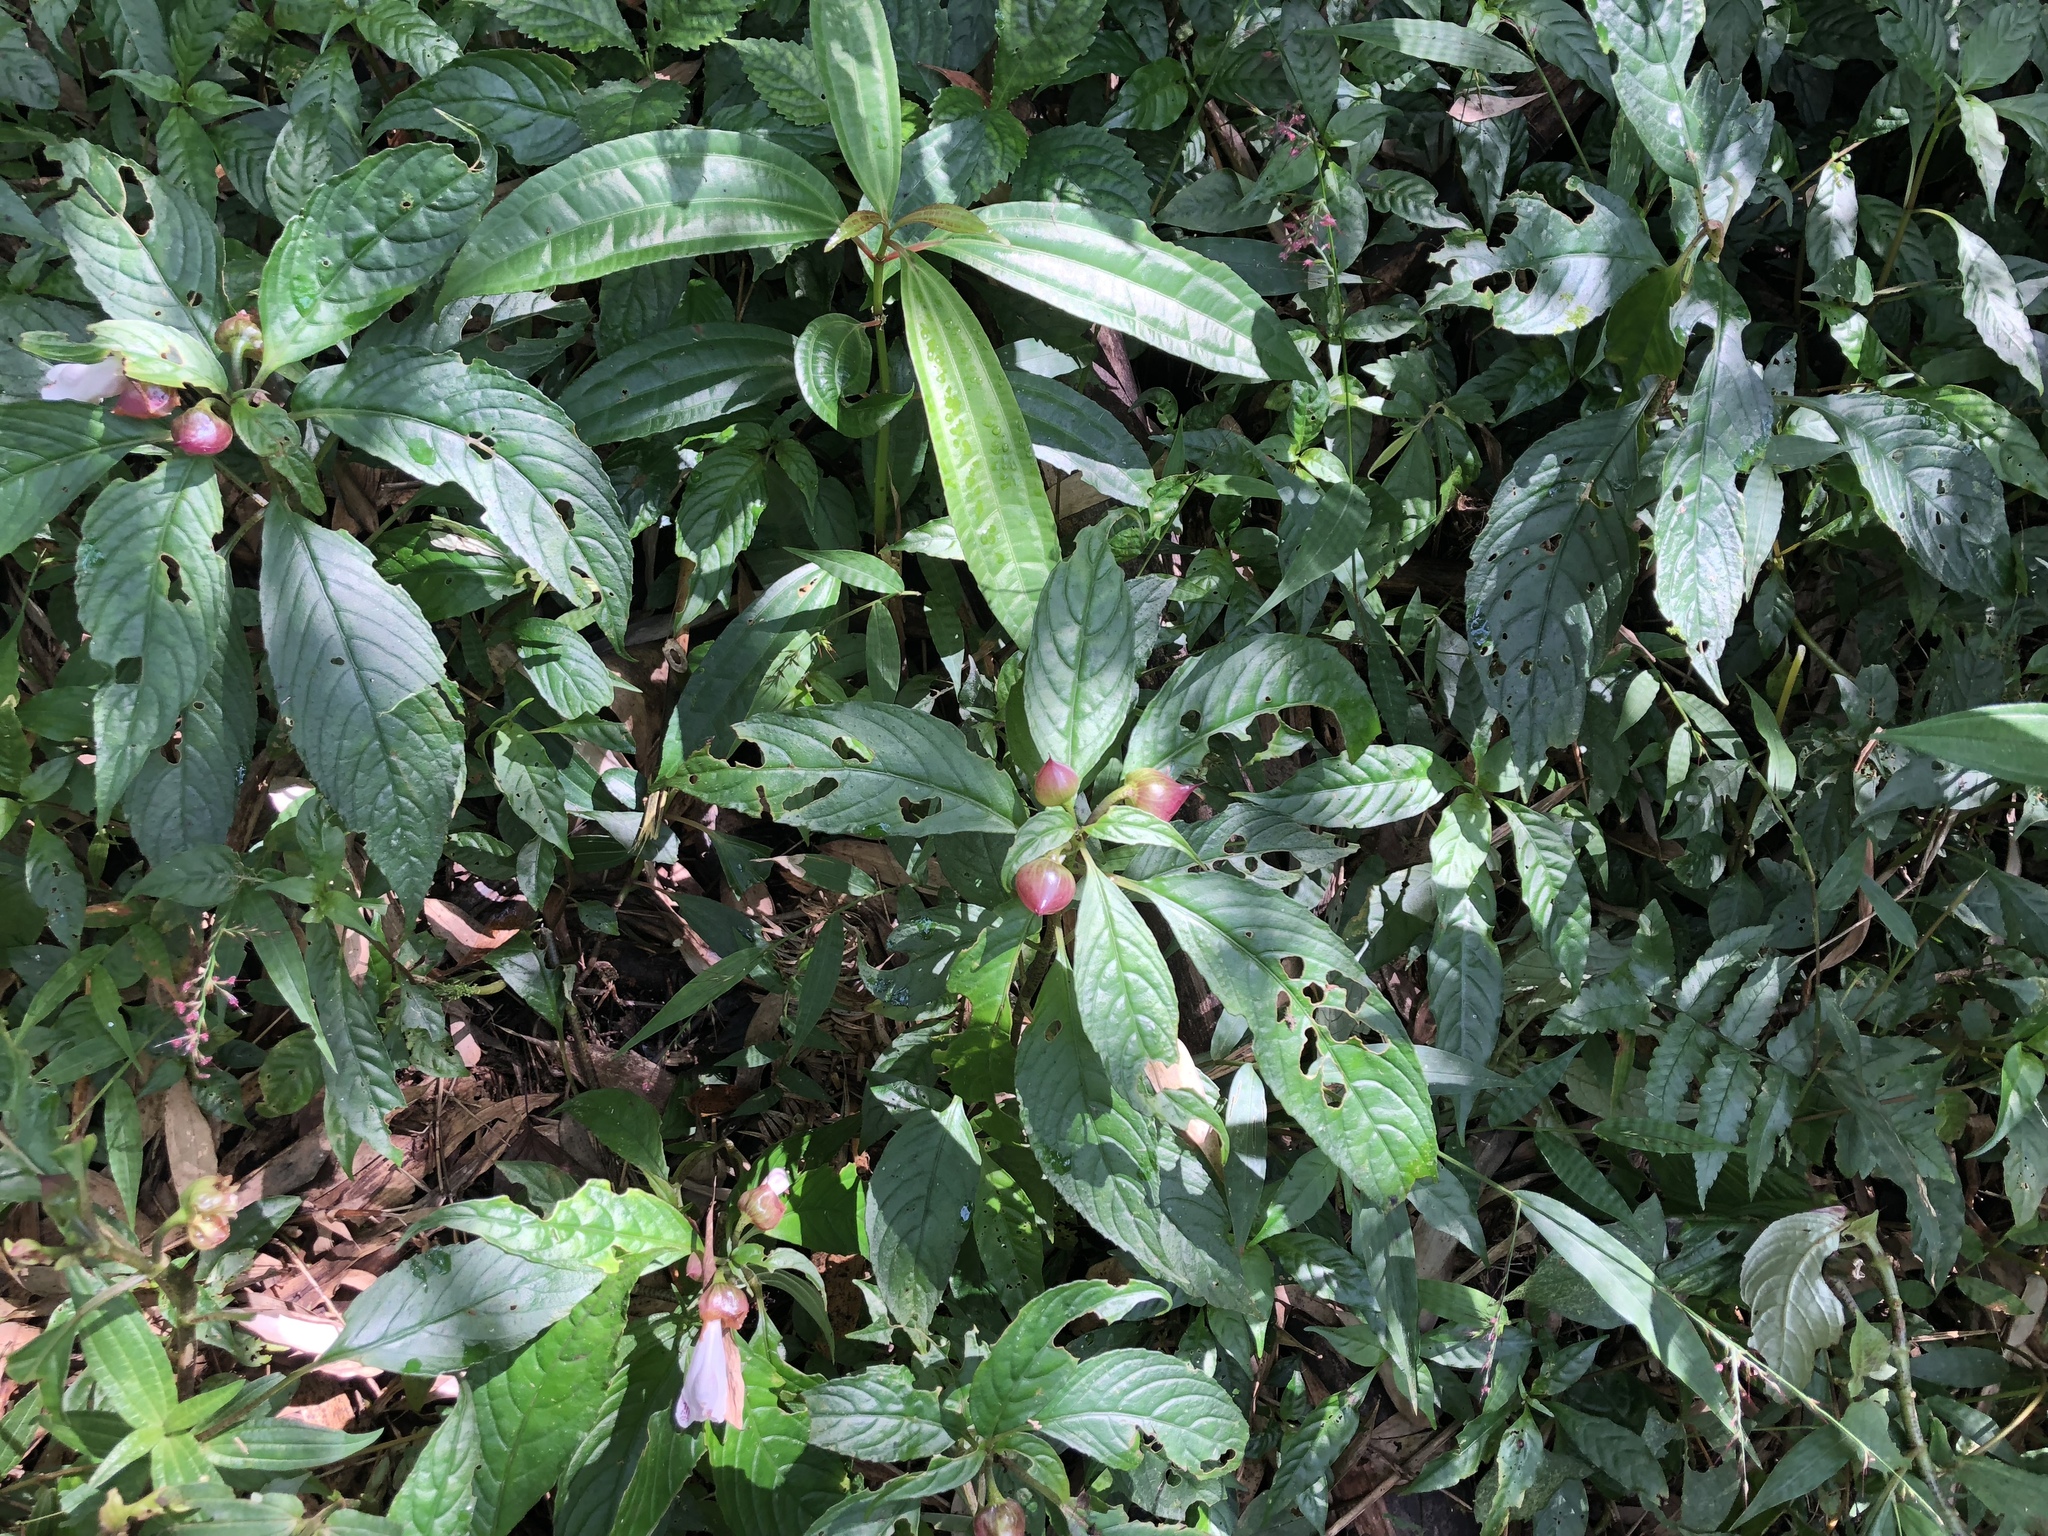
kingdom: Plantae
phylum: Tracheophyta
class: Magnoliopsida
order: Lamiales
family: Gesneriaceae
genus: Hemiboea
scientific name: Hemiboea bicornuta
